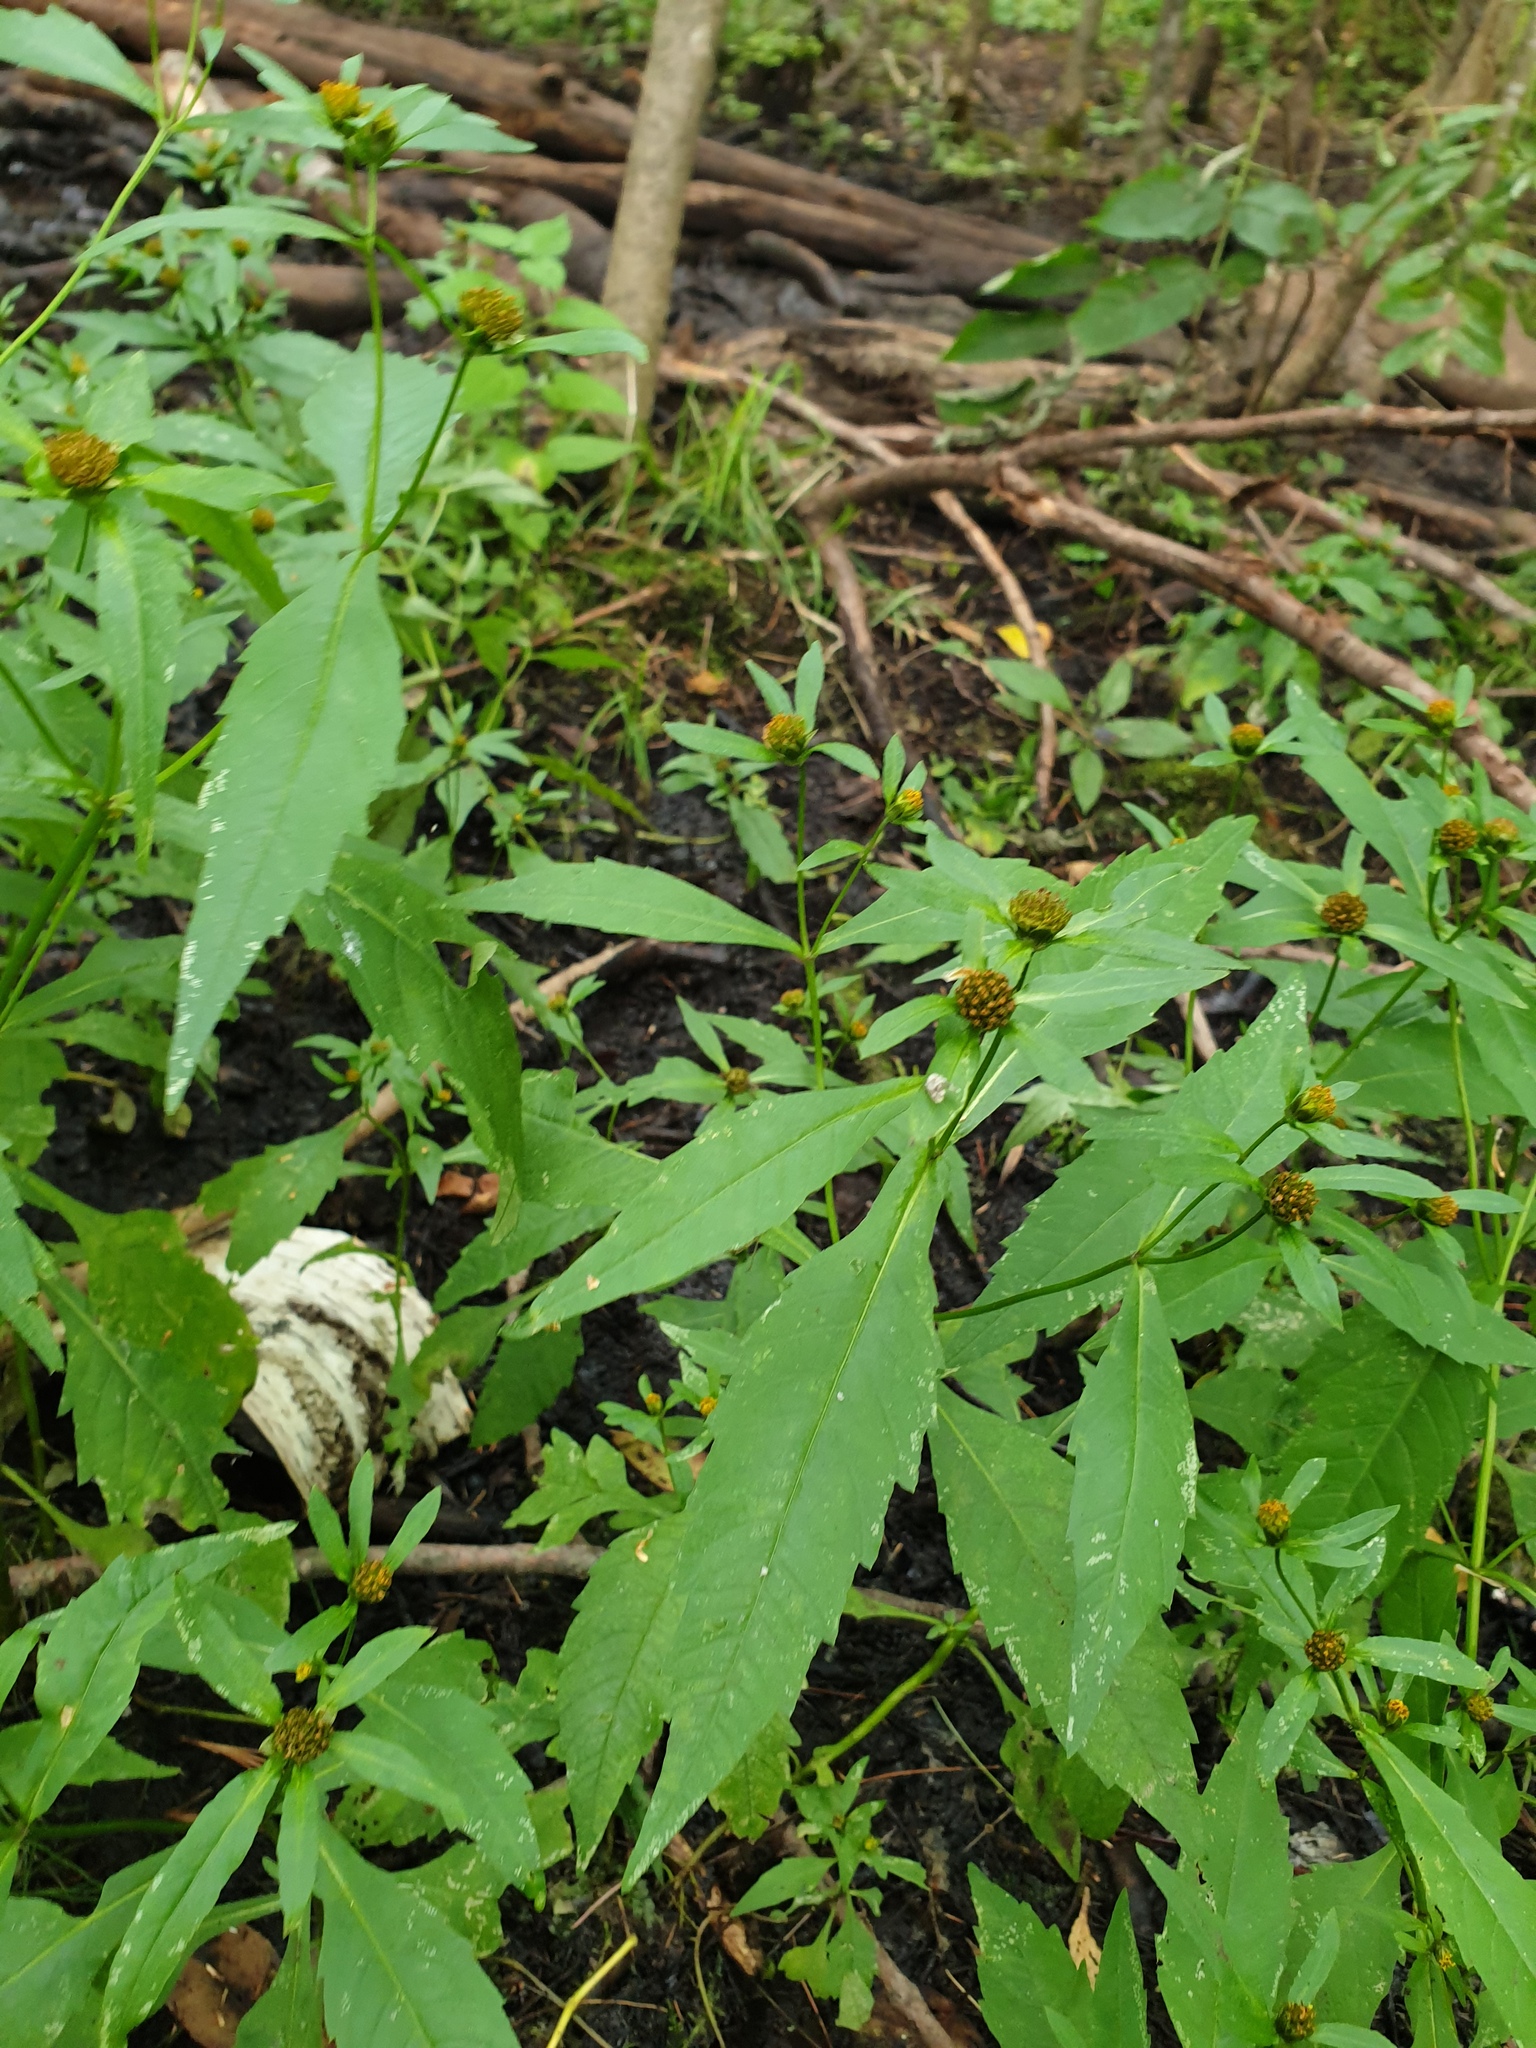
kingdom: Plantae
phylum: Tracheophyta
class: Magnoliopsida
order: Asterales
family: Asteraceae
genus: Bidens
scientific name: Bidens connata
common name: London bur-marigold
